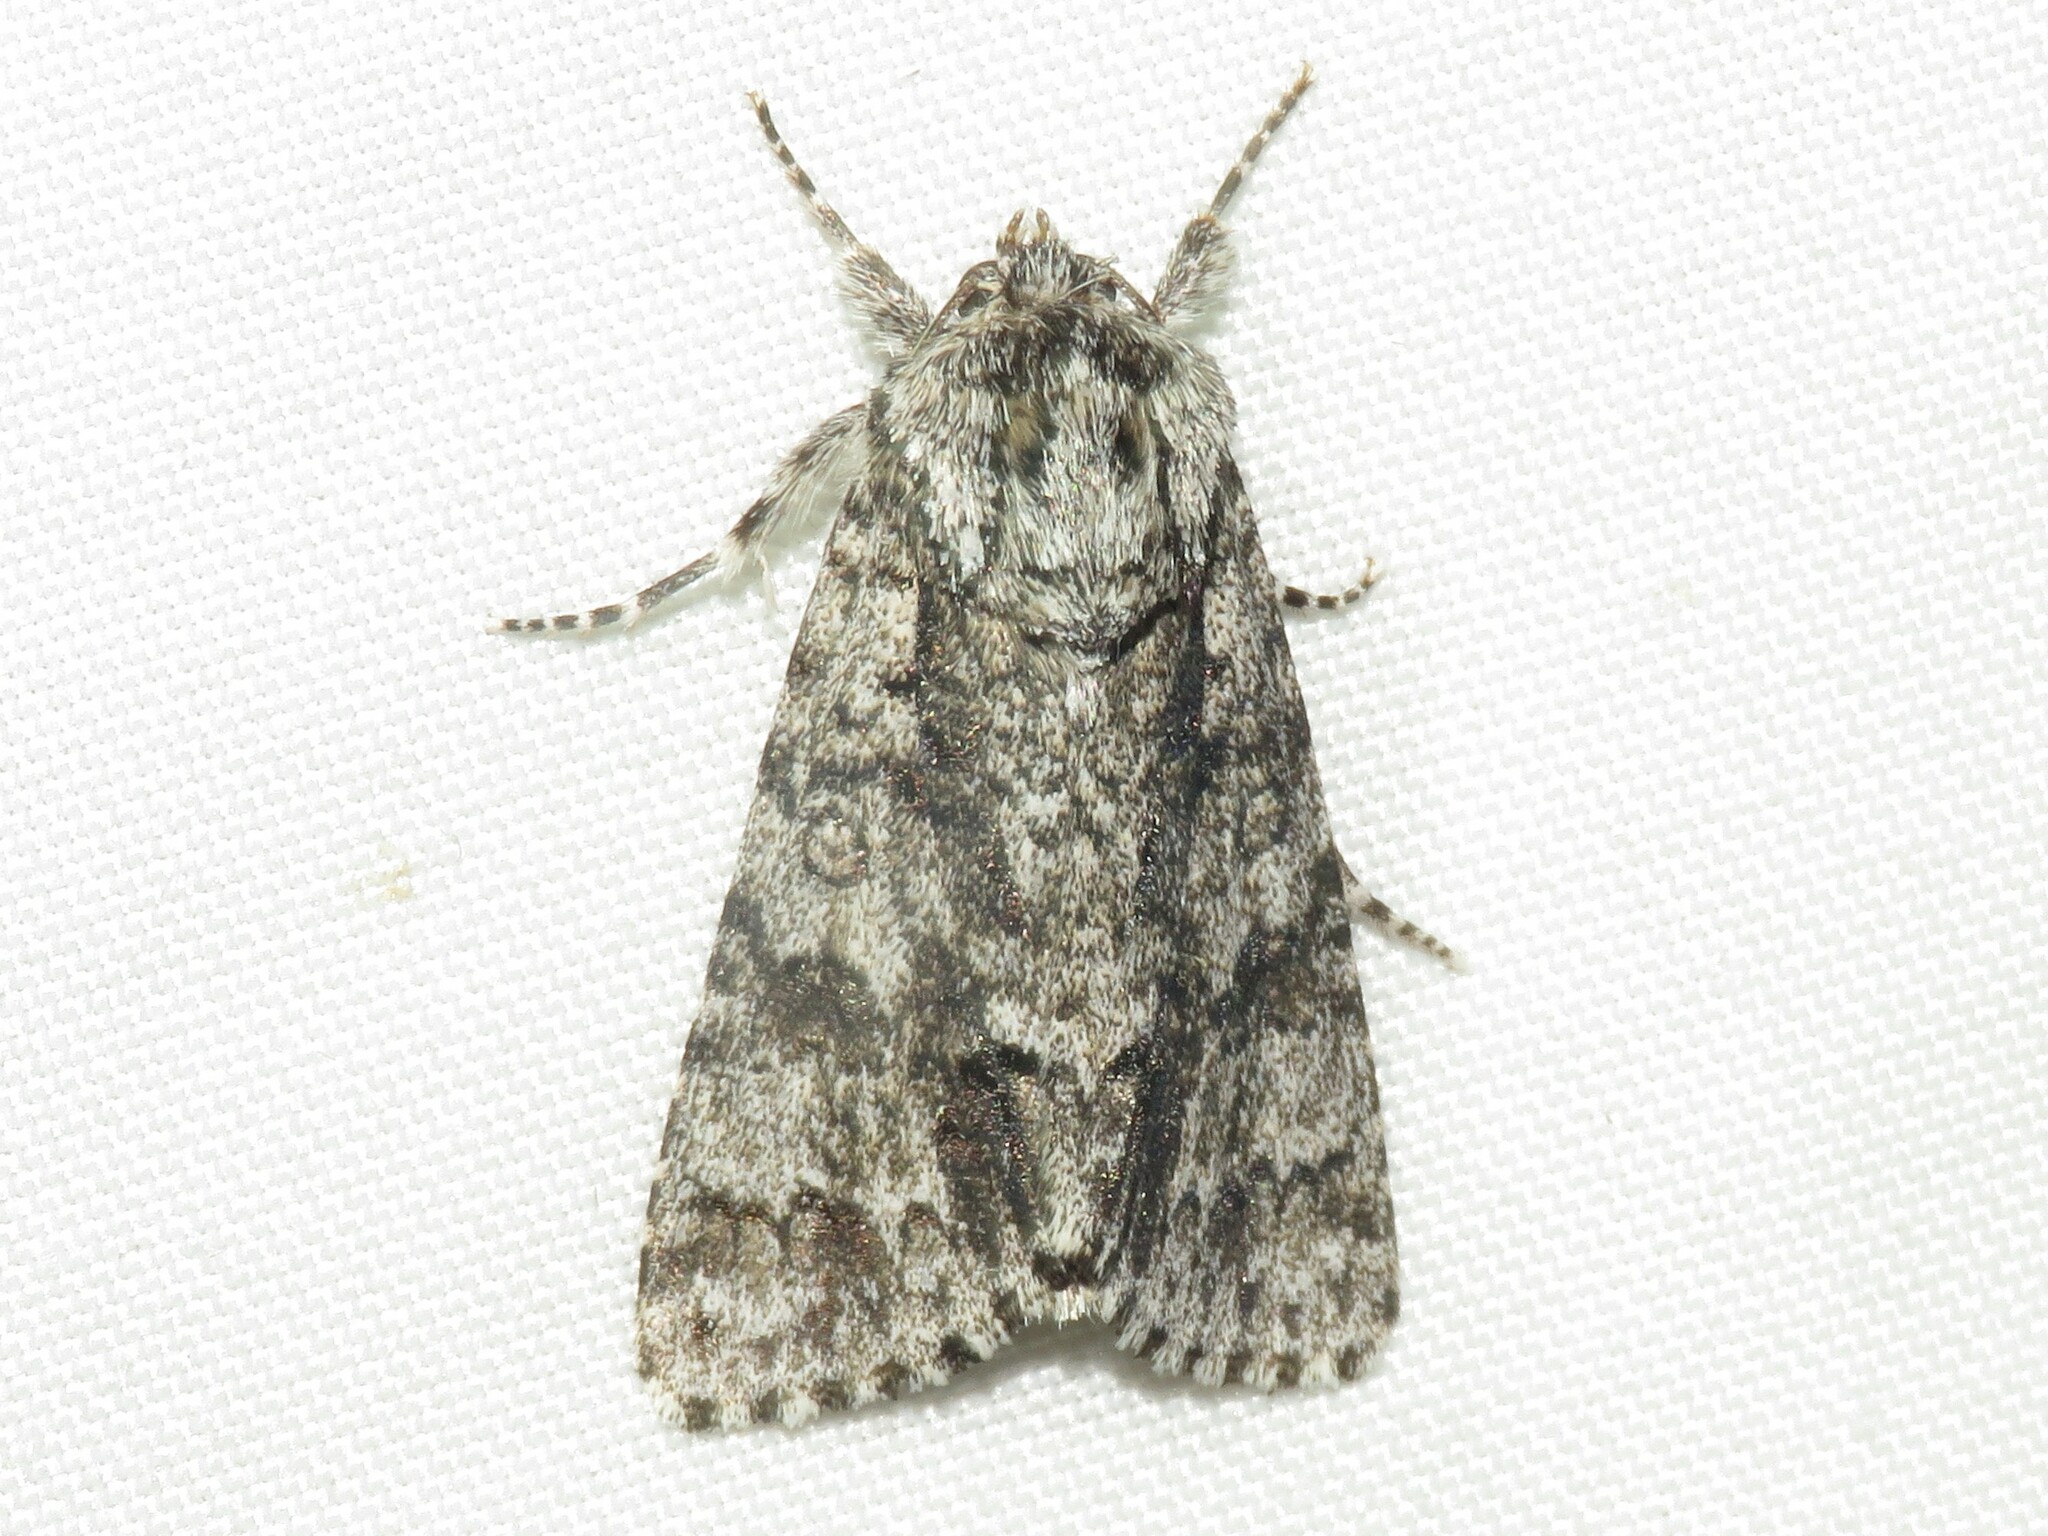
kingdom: Animalia
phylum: Arthropoda
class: Insecta
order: Lepidoptera
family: Noctuidae
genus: Acronicta
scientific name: Acronicta impressa
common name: Impressed dagger
